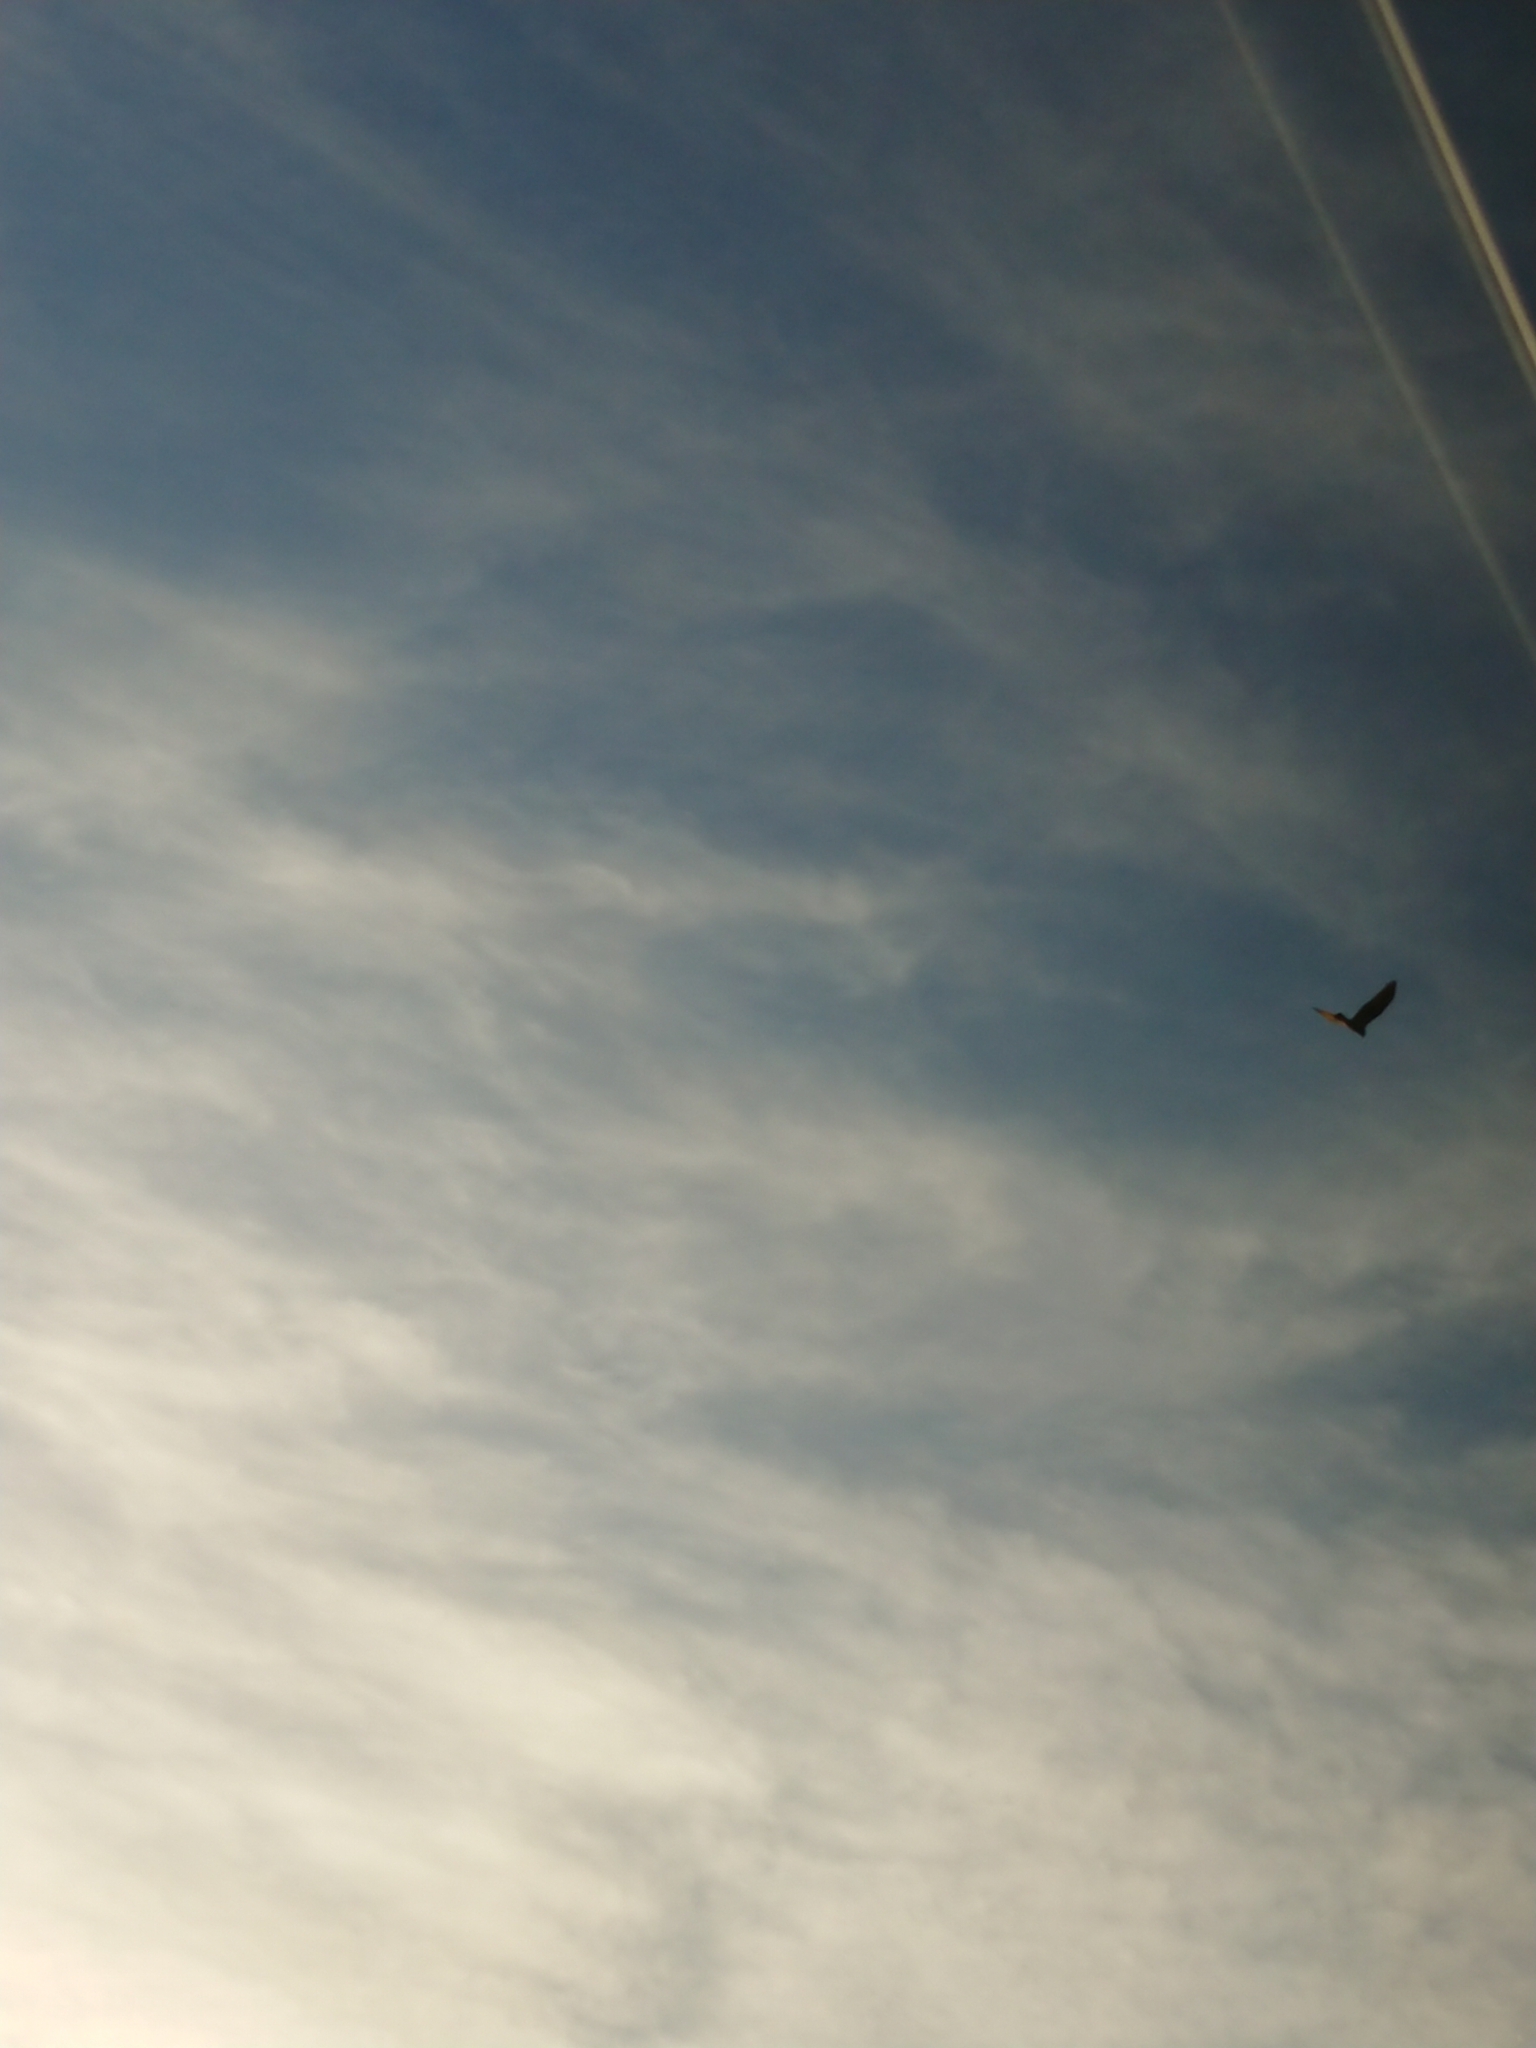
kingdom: Animalia
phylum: Chordata
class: Aves
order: Accipitriformes
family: Accipitridae
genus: Circus
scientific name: Circus approximans
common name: Swamp harrier
